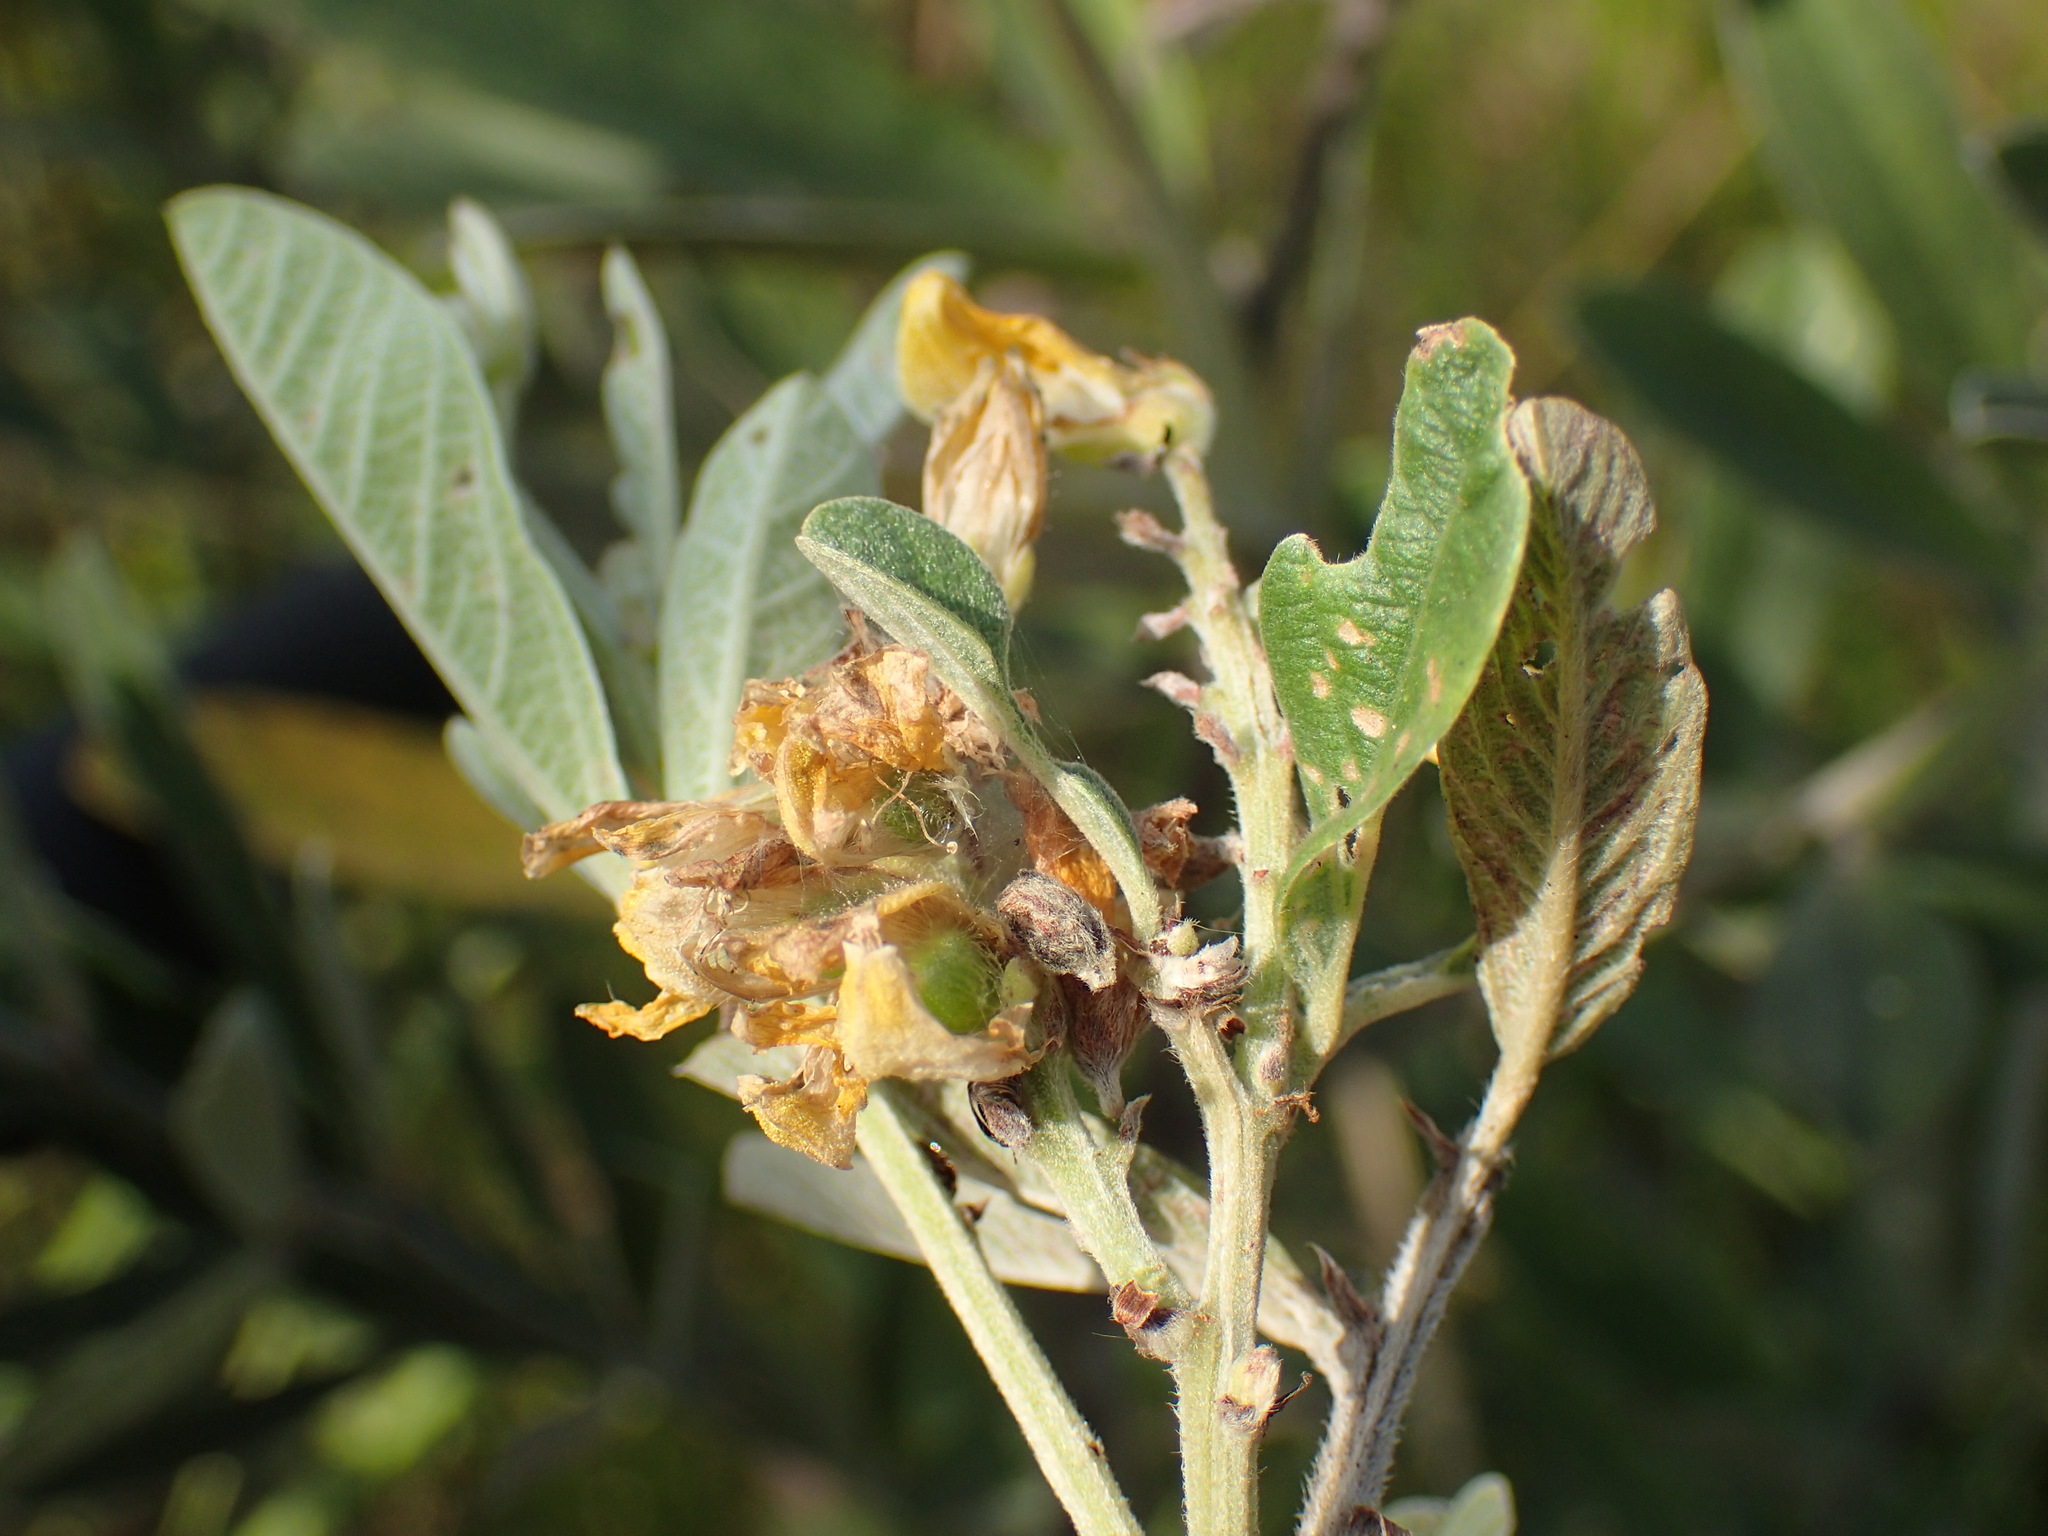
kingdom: Plantae
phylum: Tracheophyta
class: Magnoliopsida
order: Fabales
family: Fabaceae
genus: Eriosema
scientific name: Eriosema psoraleoides
